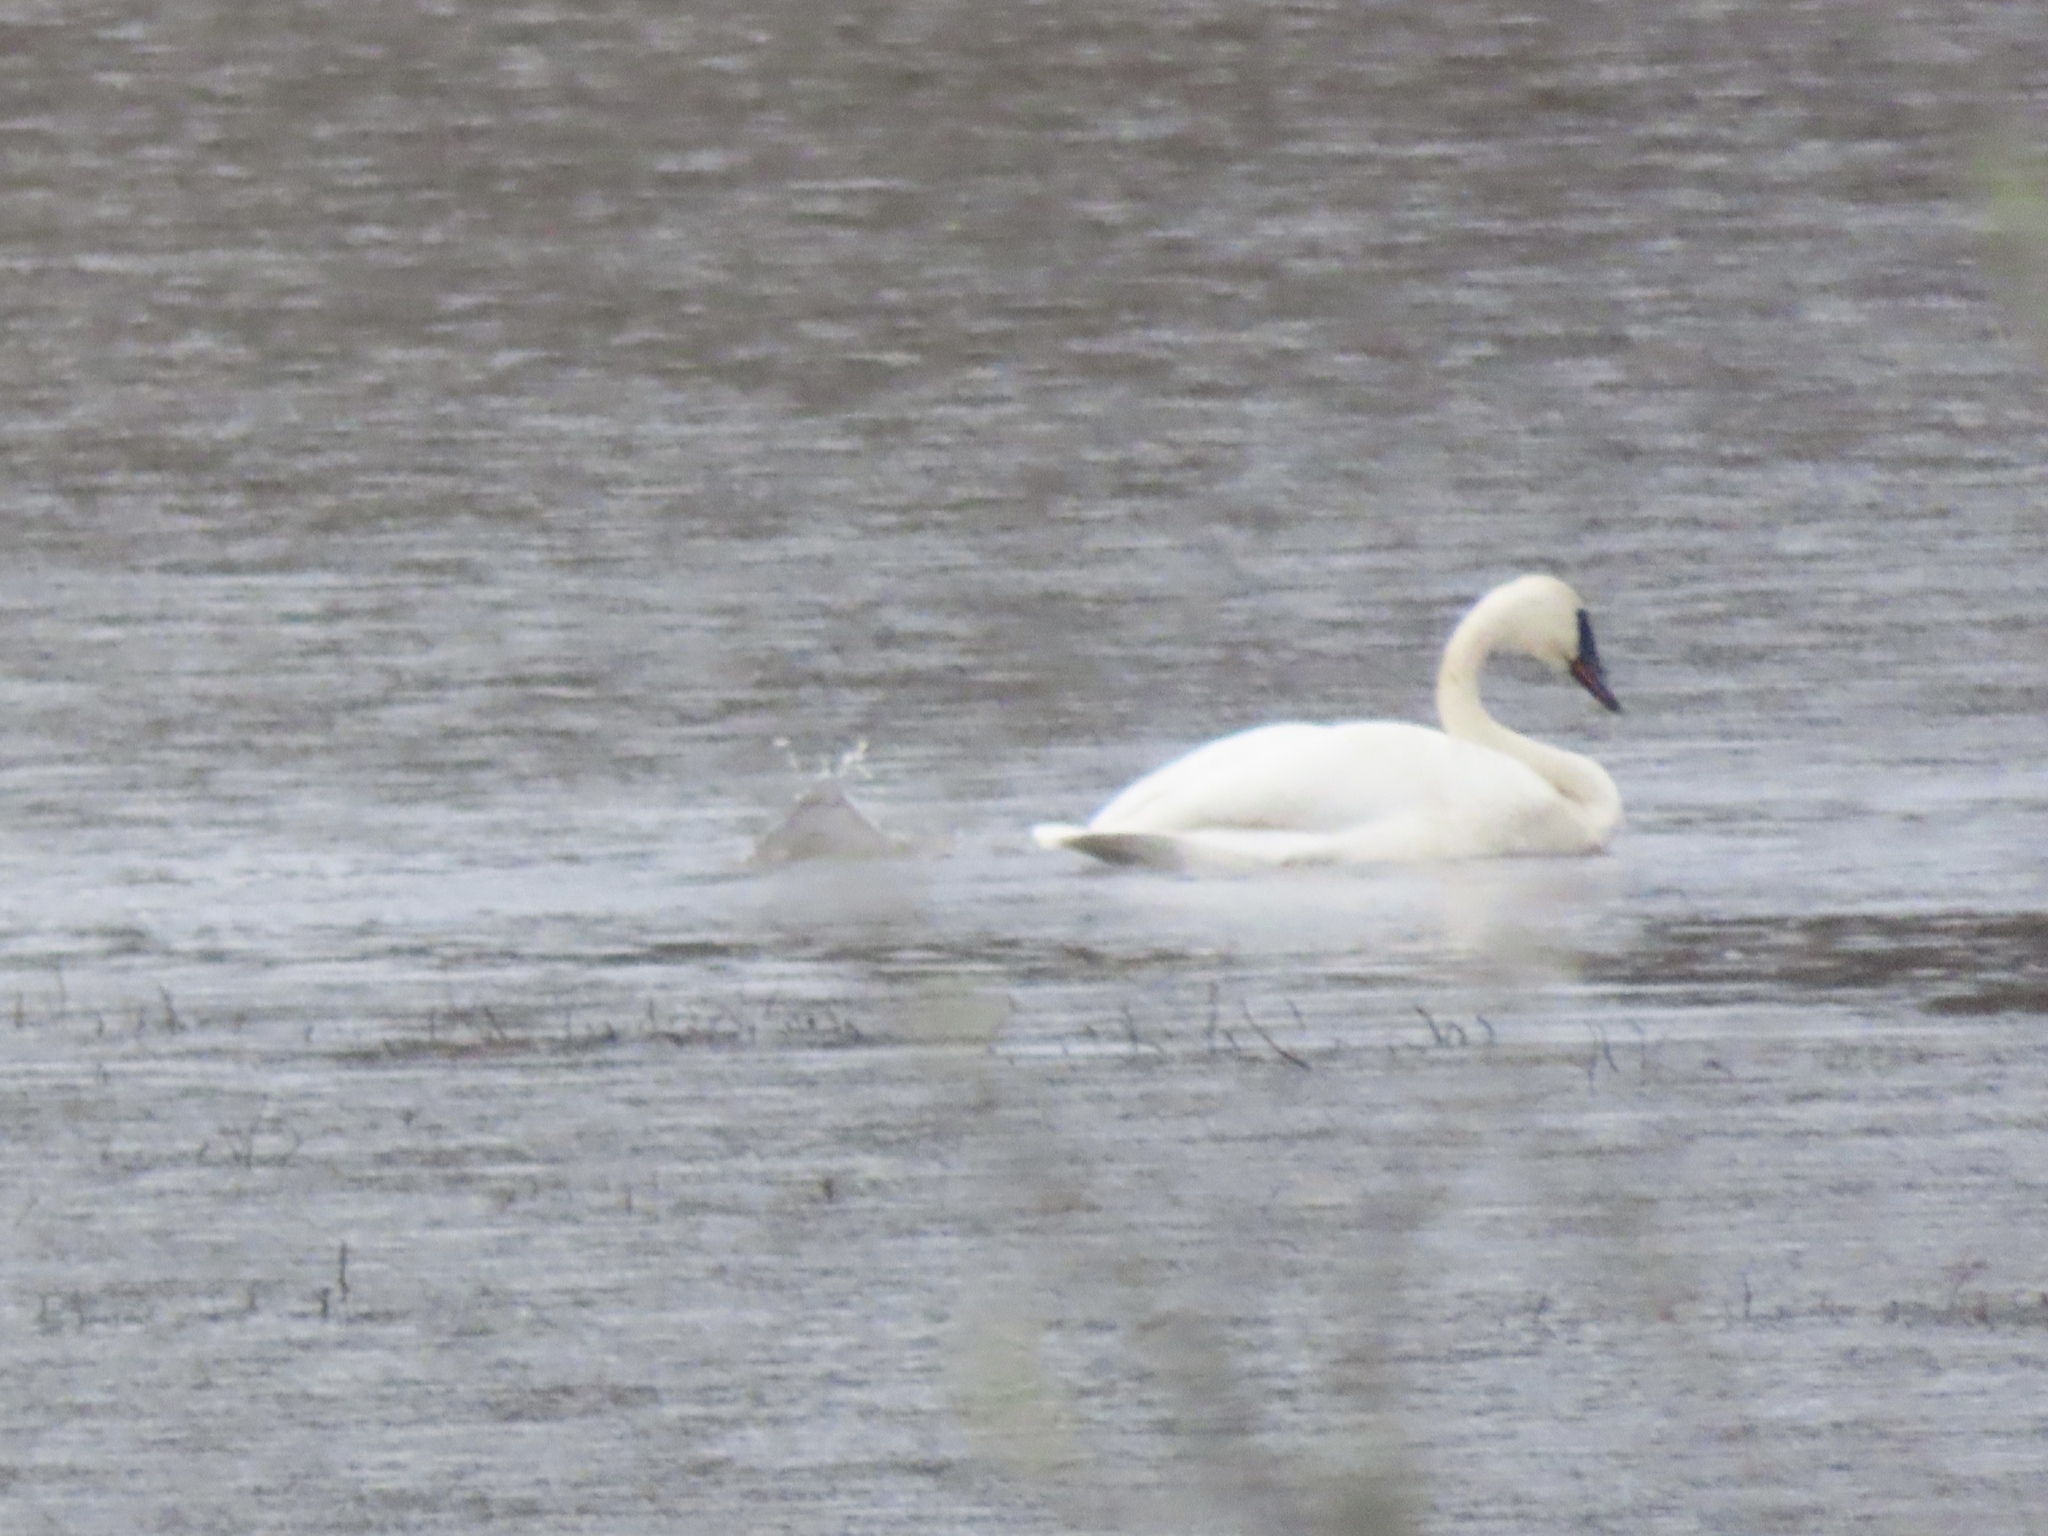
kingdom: Animalia
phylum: Chordata
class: Aves
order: Anseriformes
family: Anatidae
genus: Cygnus
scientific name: Cygnus buccinator
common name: Trumpeter swan
